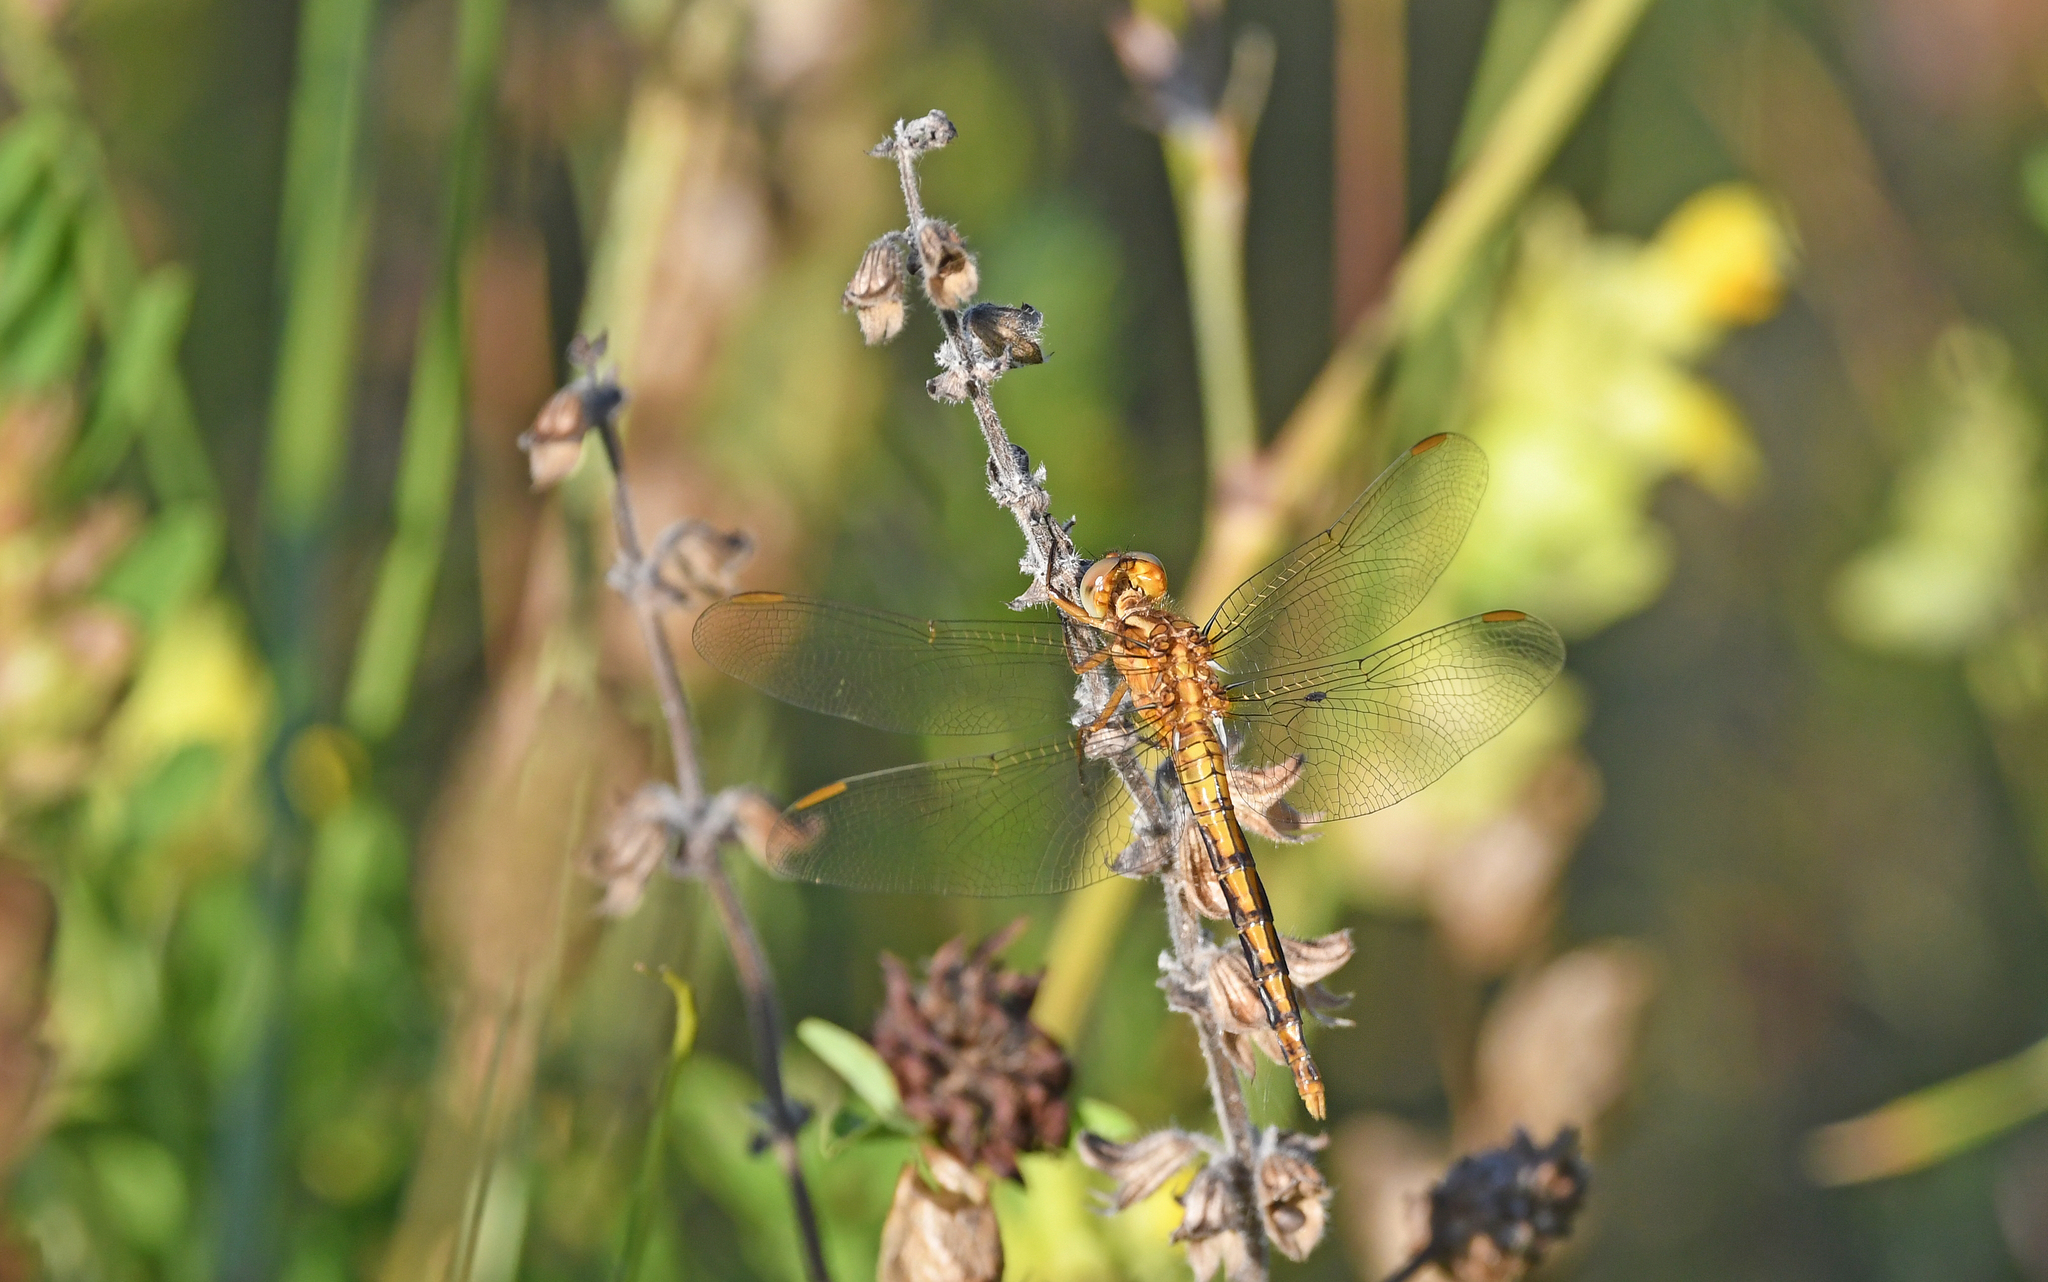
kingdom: Animalia
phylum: Arthropoda
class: Insecta
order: Odonata
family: Libellulidae
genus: Orthetrum
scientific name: Orthetrum coerulescens
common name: Keeled skimmer
